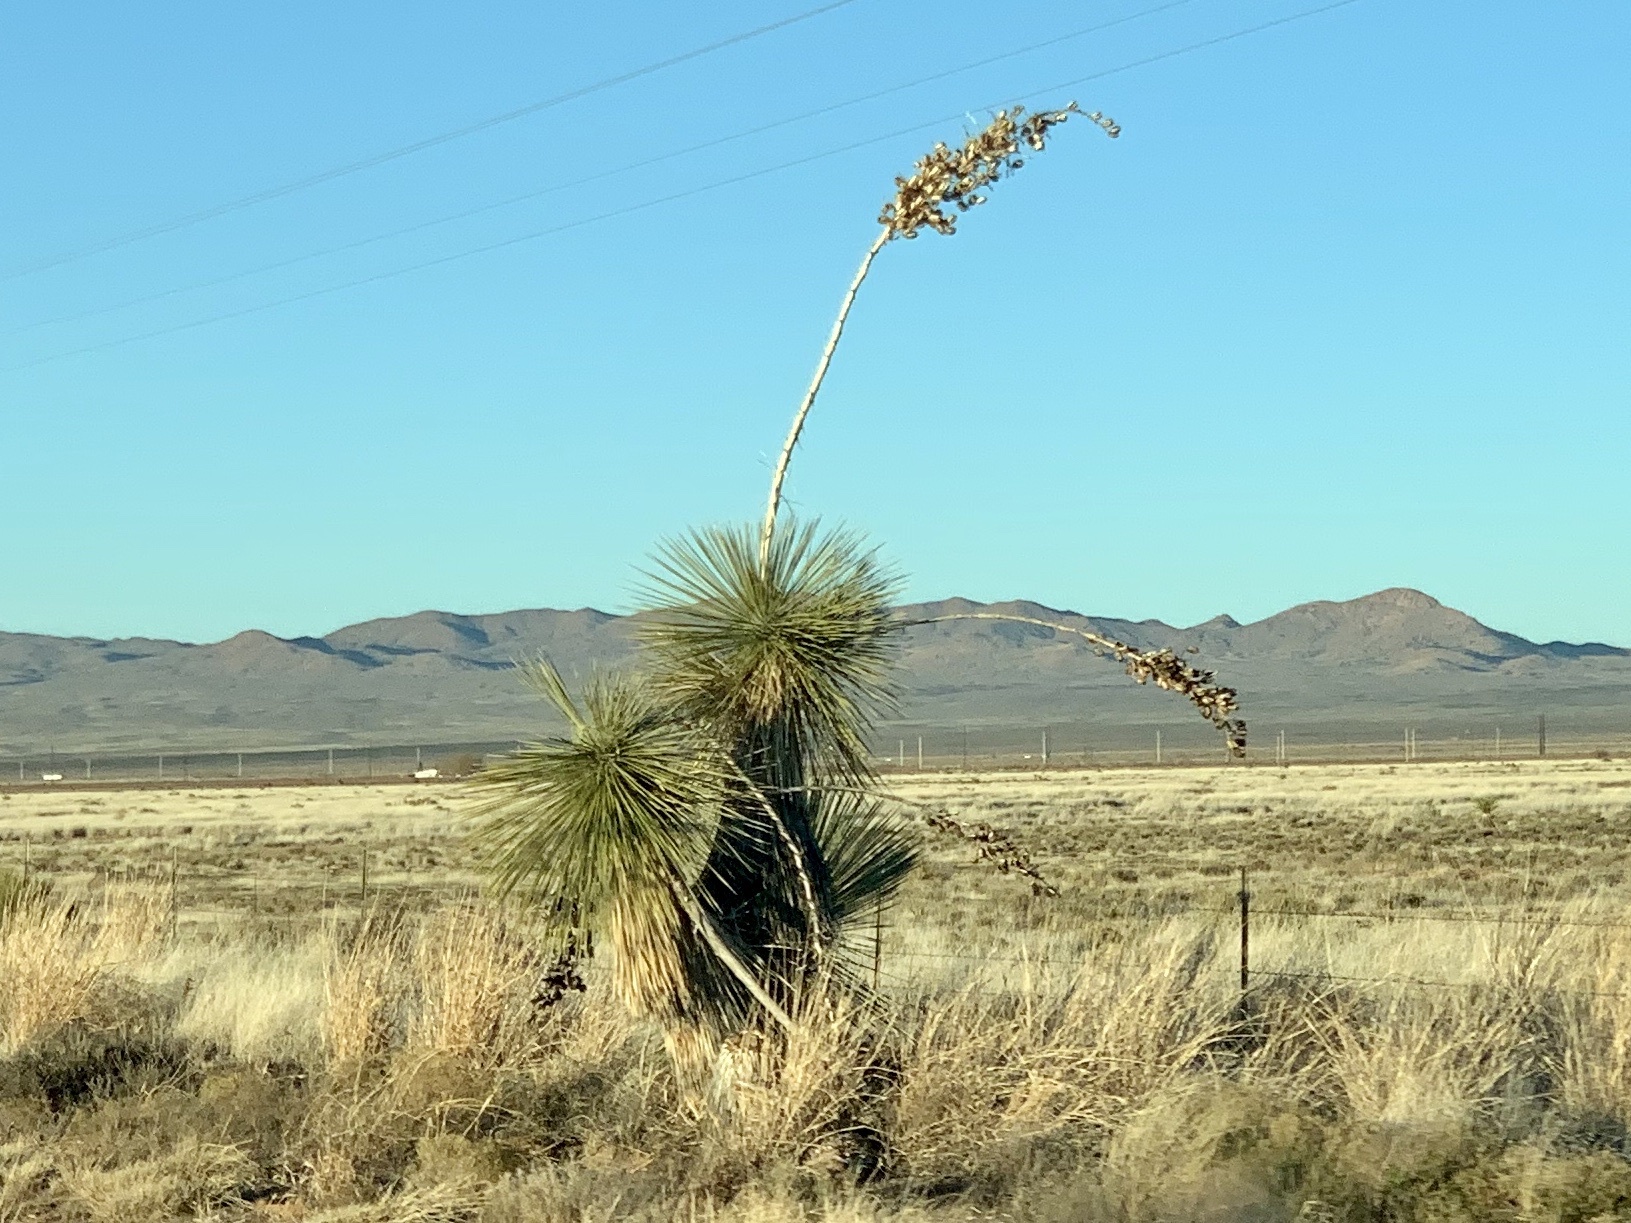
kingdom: Plantae
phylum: Tracheophyta
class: Liliopsida
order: Asparagales
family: Asparagaceae
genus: Yucca
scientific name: Yucca elata
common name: Palmella
